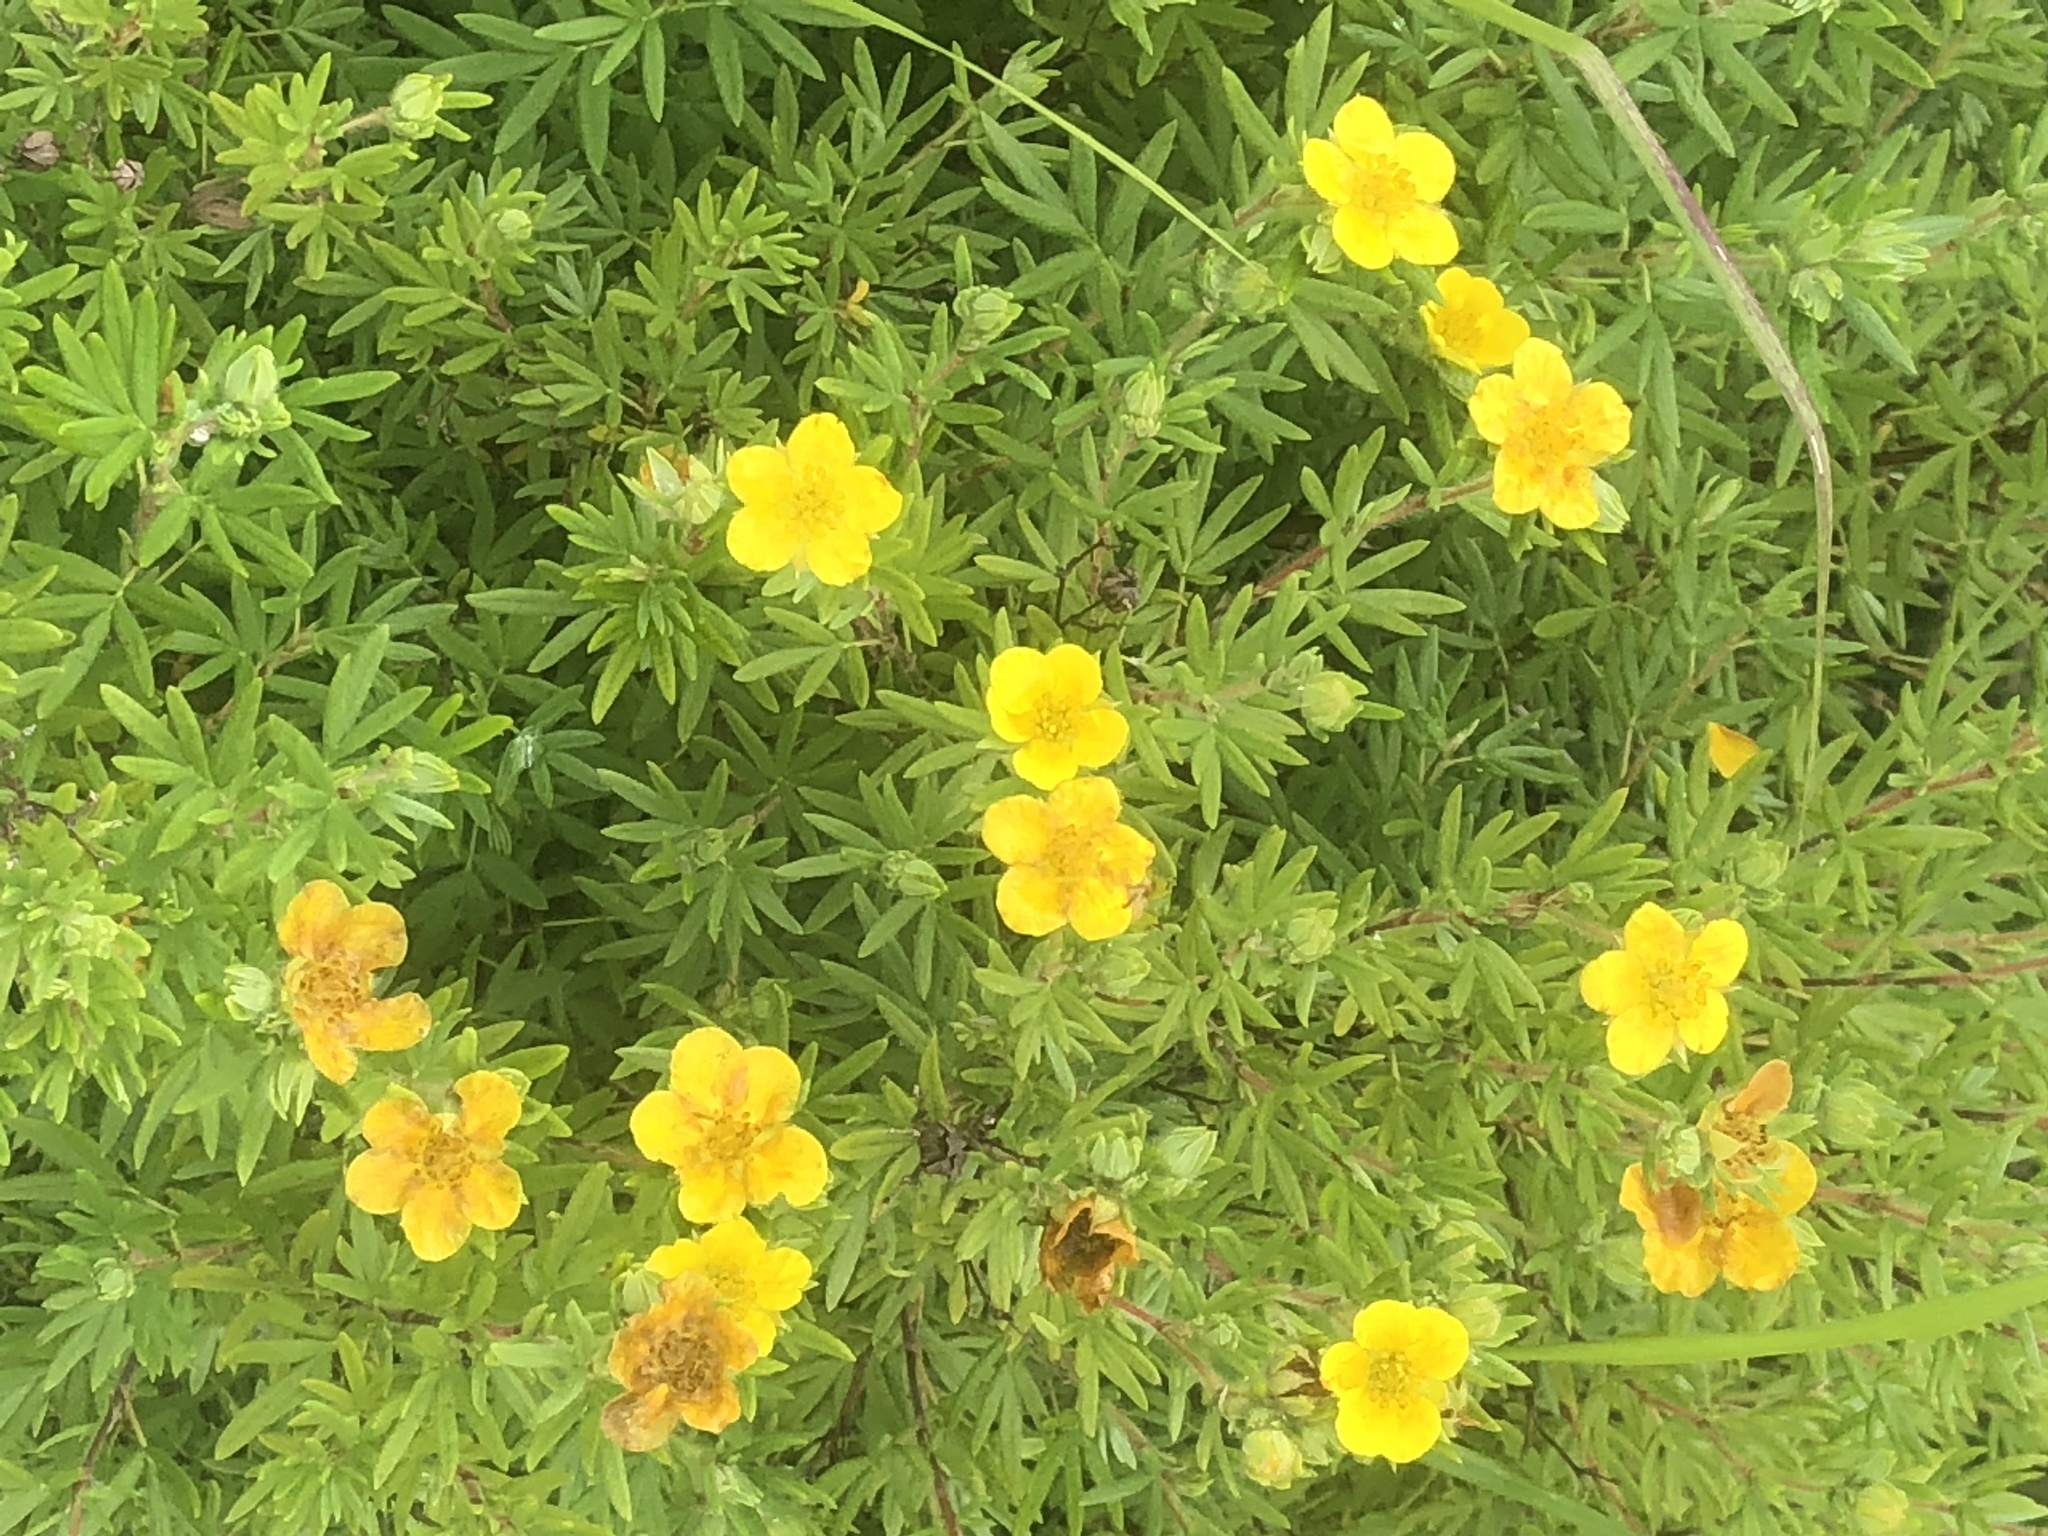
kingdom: Plantae
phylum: Tracheophyta
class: Magnoliopsida
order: Rosales
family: Rosaceae
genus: Dasiphora
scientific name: Dasiphora fruticosa
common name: Shrubby cinquefoil
